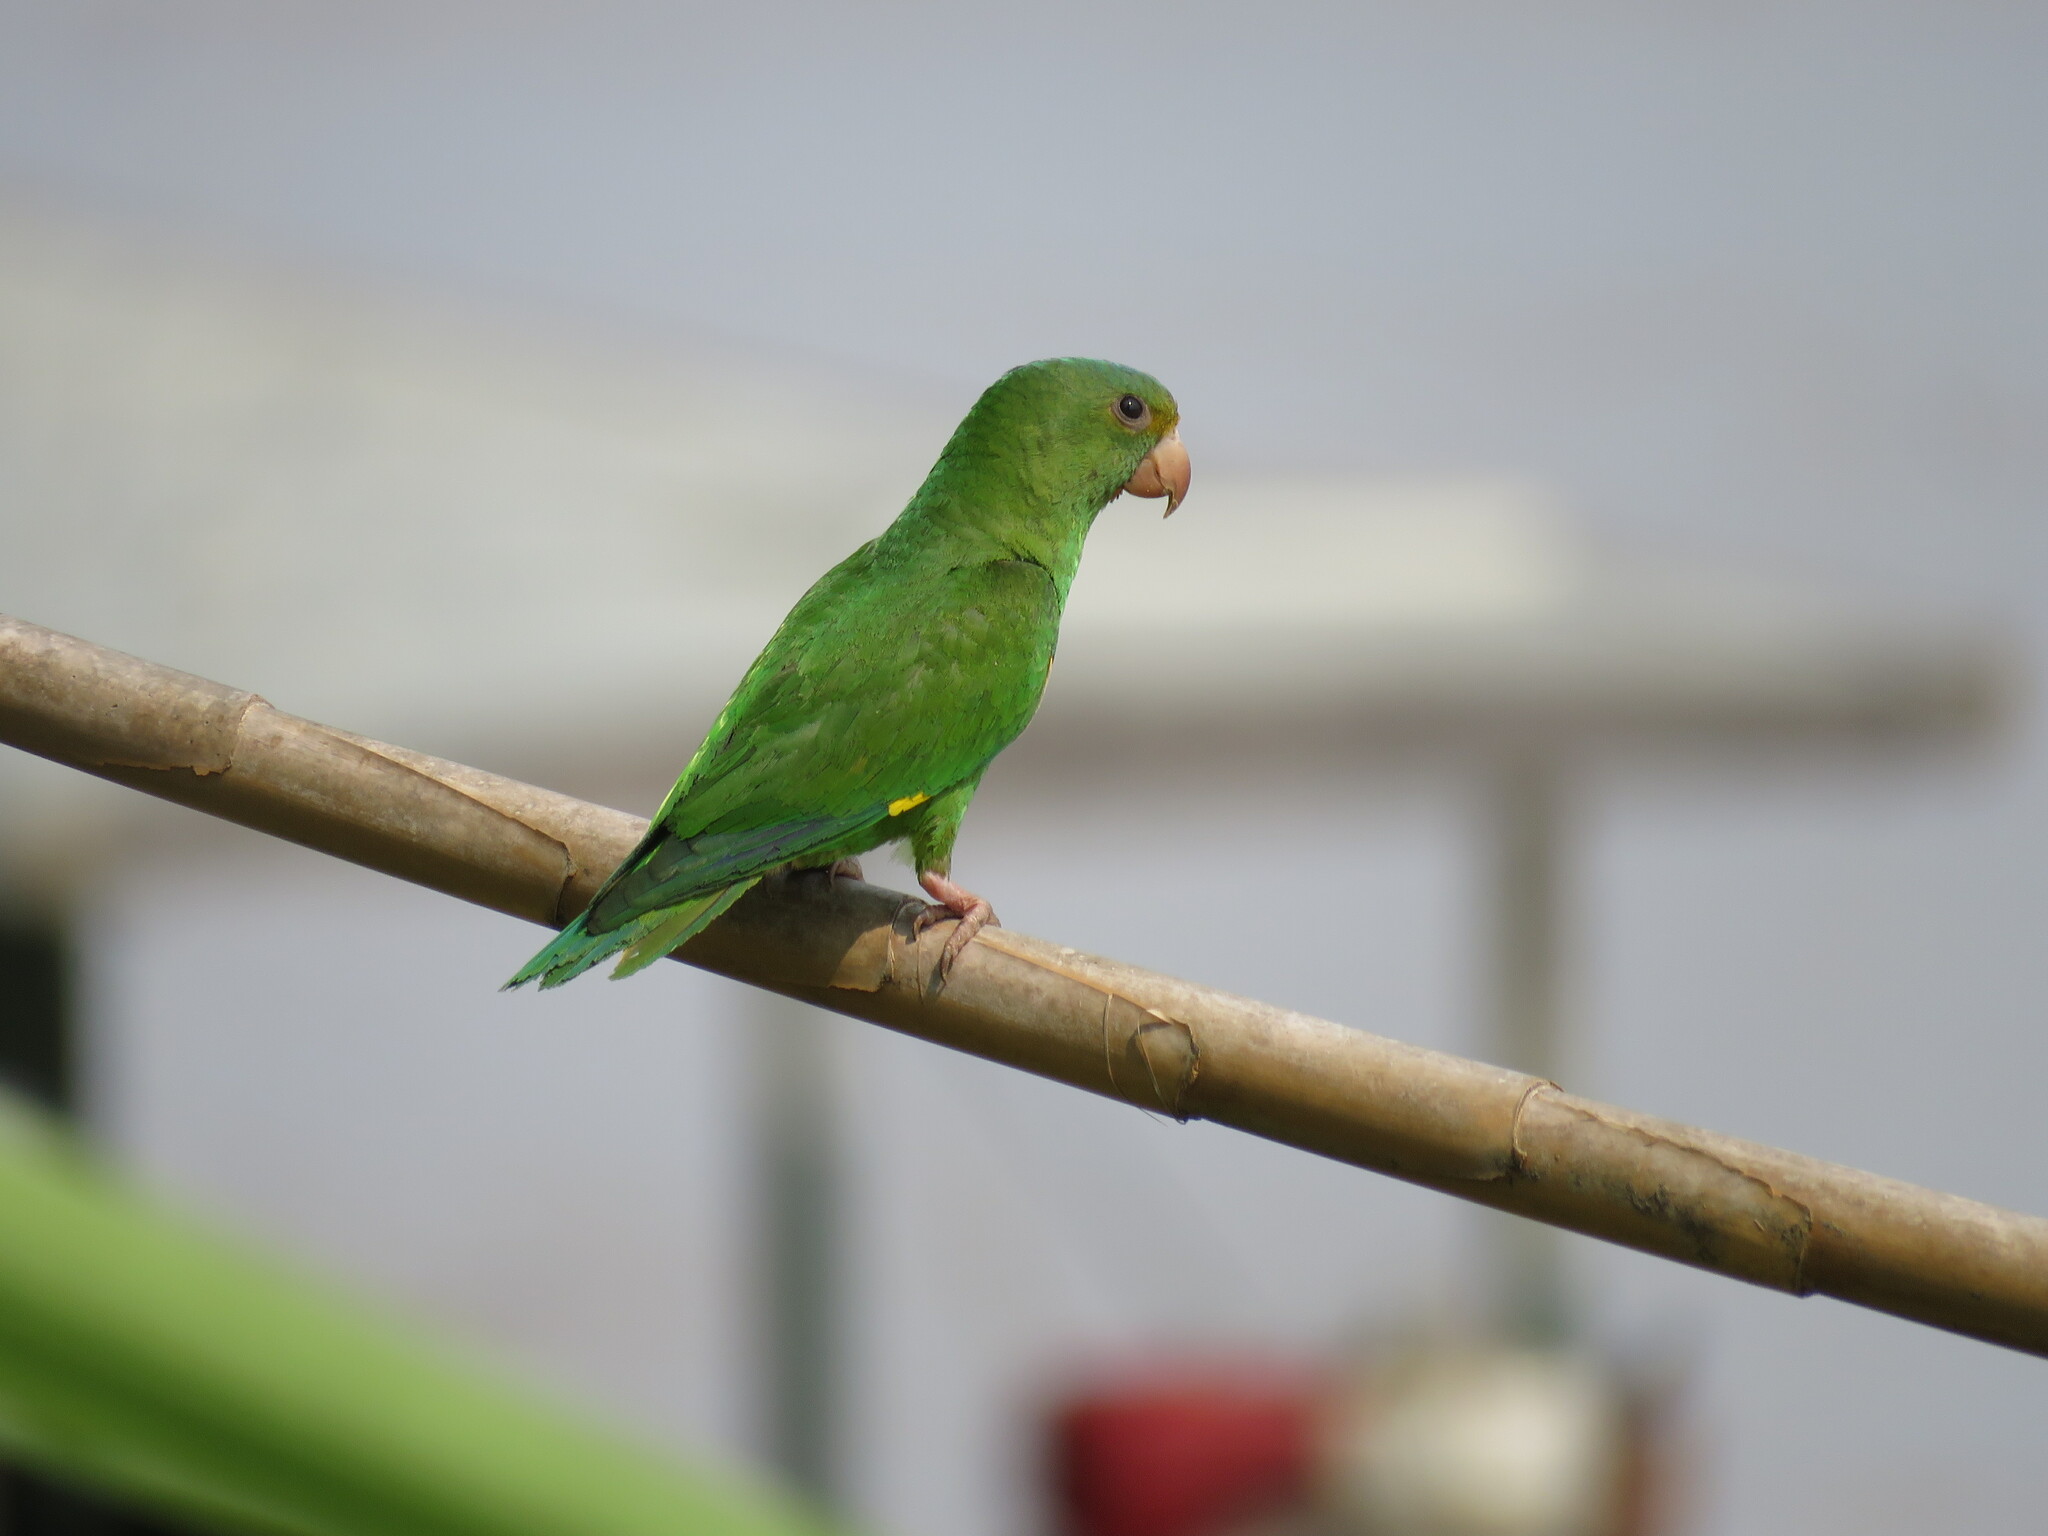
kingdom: Animalia
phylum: Chordata
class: Aves
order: Psittaciformes
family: Psittacidae
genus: Brotogeris
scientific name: Brotogeris cyanoptera
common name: Cobalt-winged parakeet
